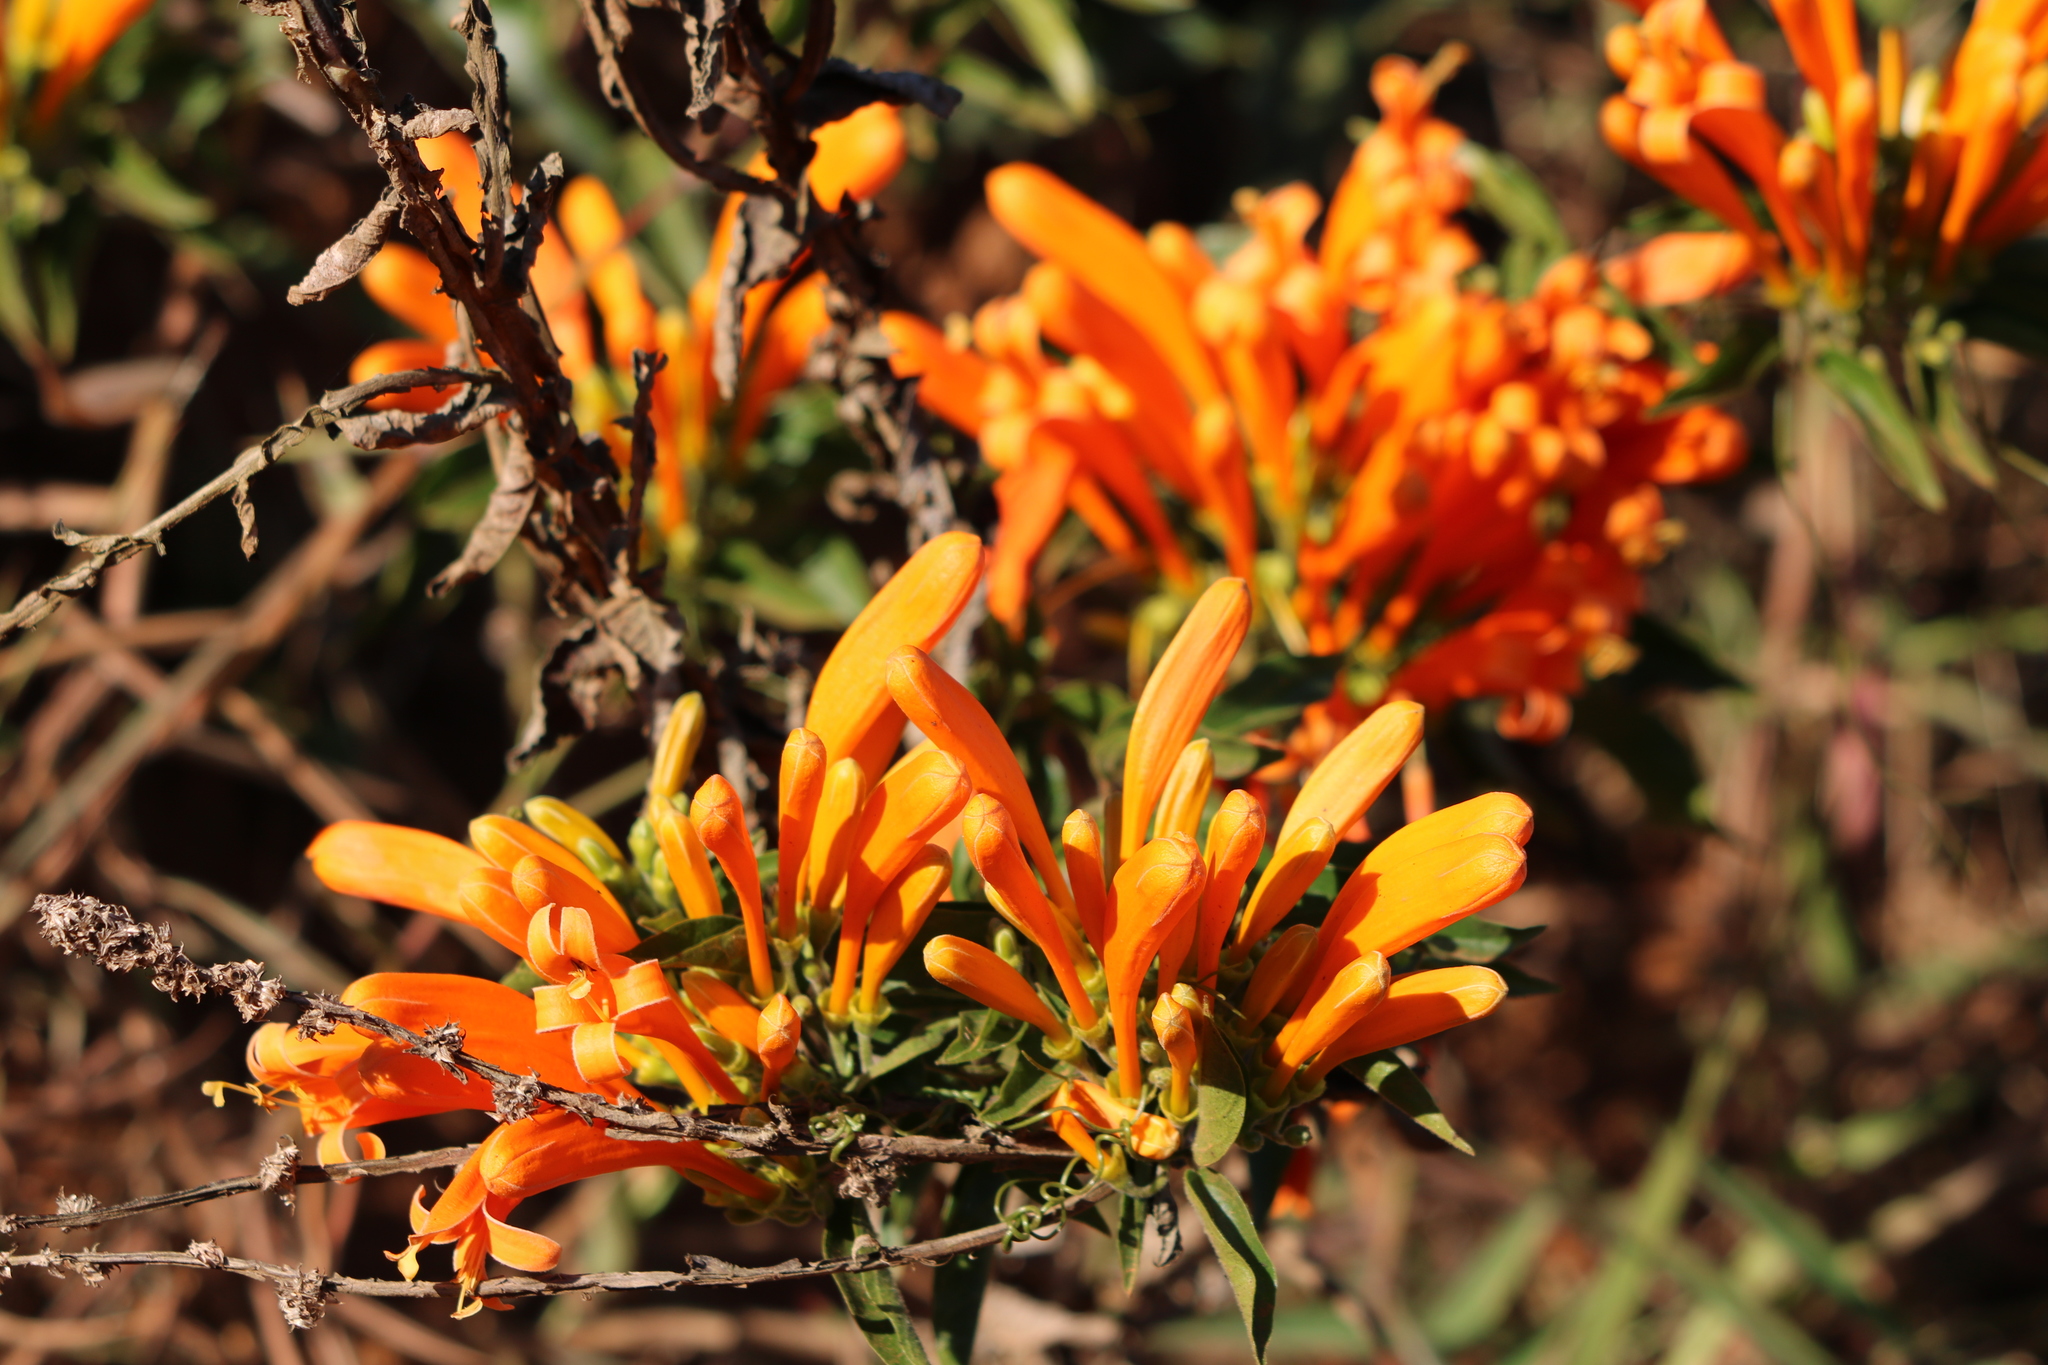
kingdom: Plantae
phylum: Tracheophyta
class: Magnoliopsida
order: Lamiales
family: Bignoniaceae
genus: Pyrostegia
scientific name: Pyrostegia venusta
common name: Flamevine
